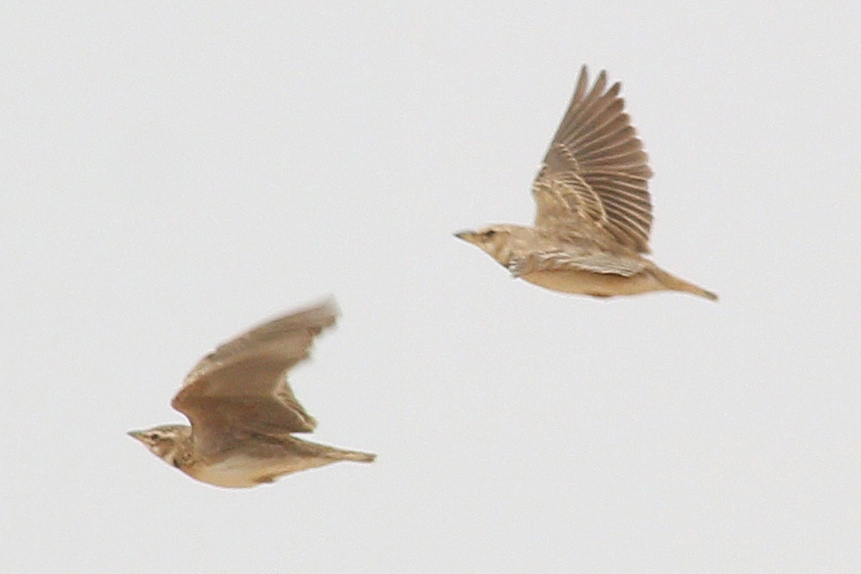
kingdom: Animalia
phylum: Chordata
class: Aves
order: Passeriformes
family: Alaudidae
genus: Melanocorypha
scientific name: Melanocorypha bimaculata
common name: Bimaculated lark
